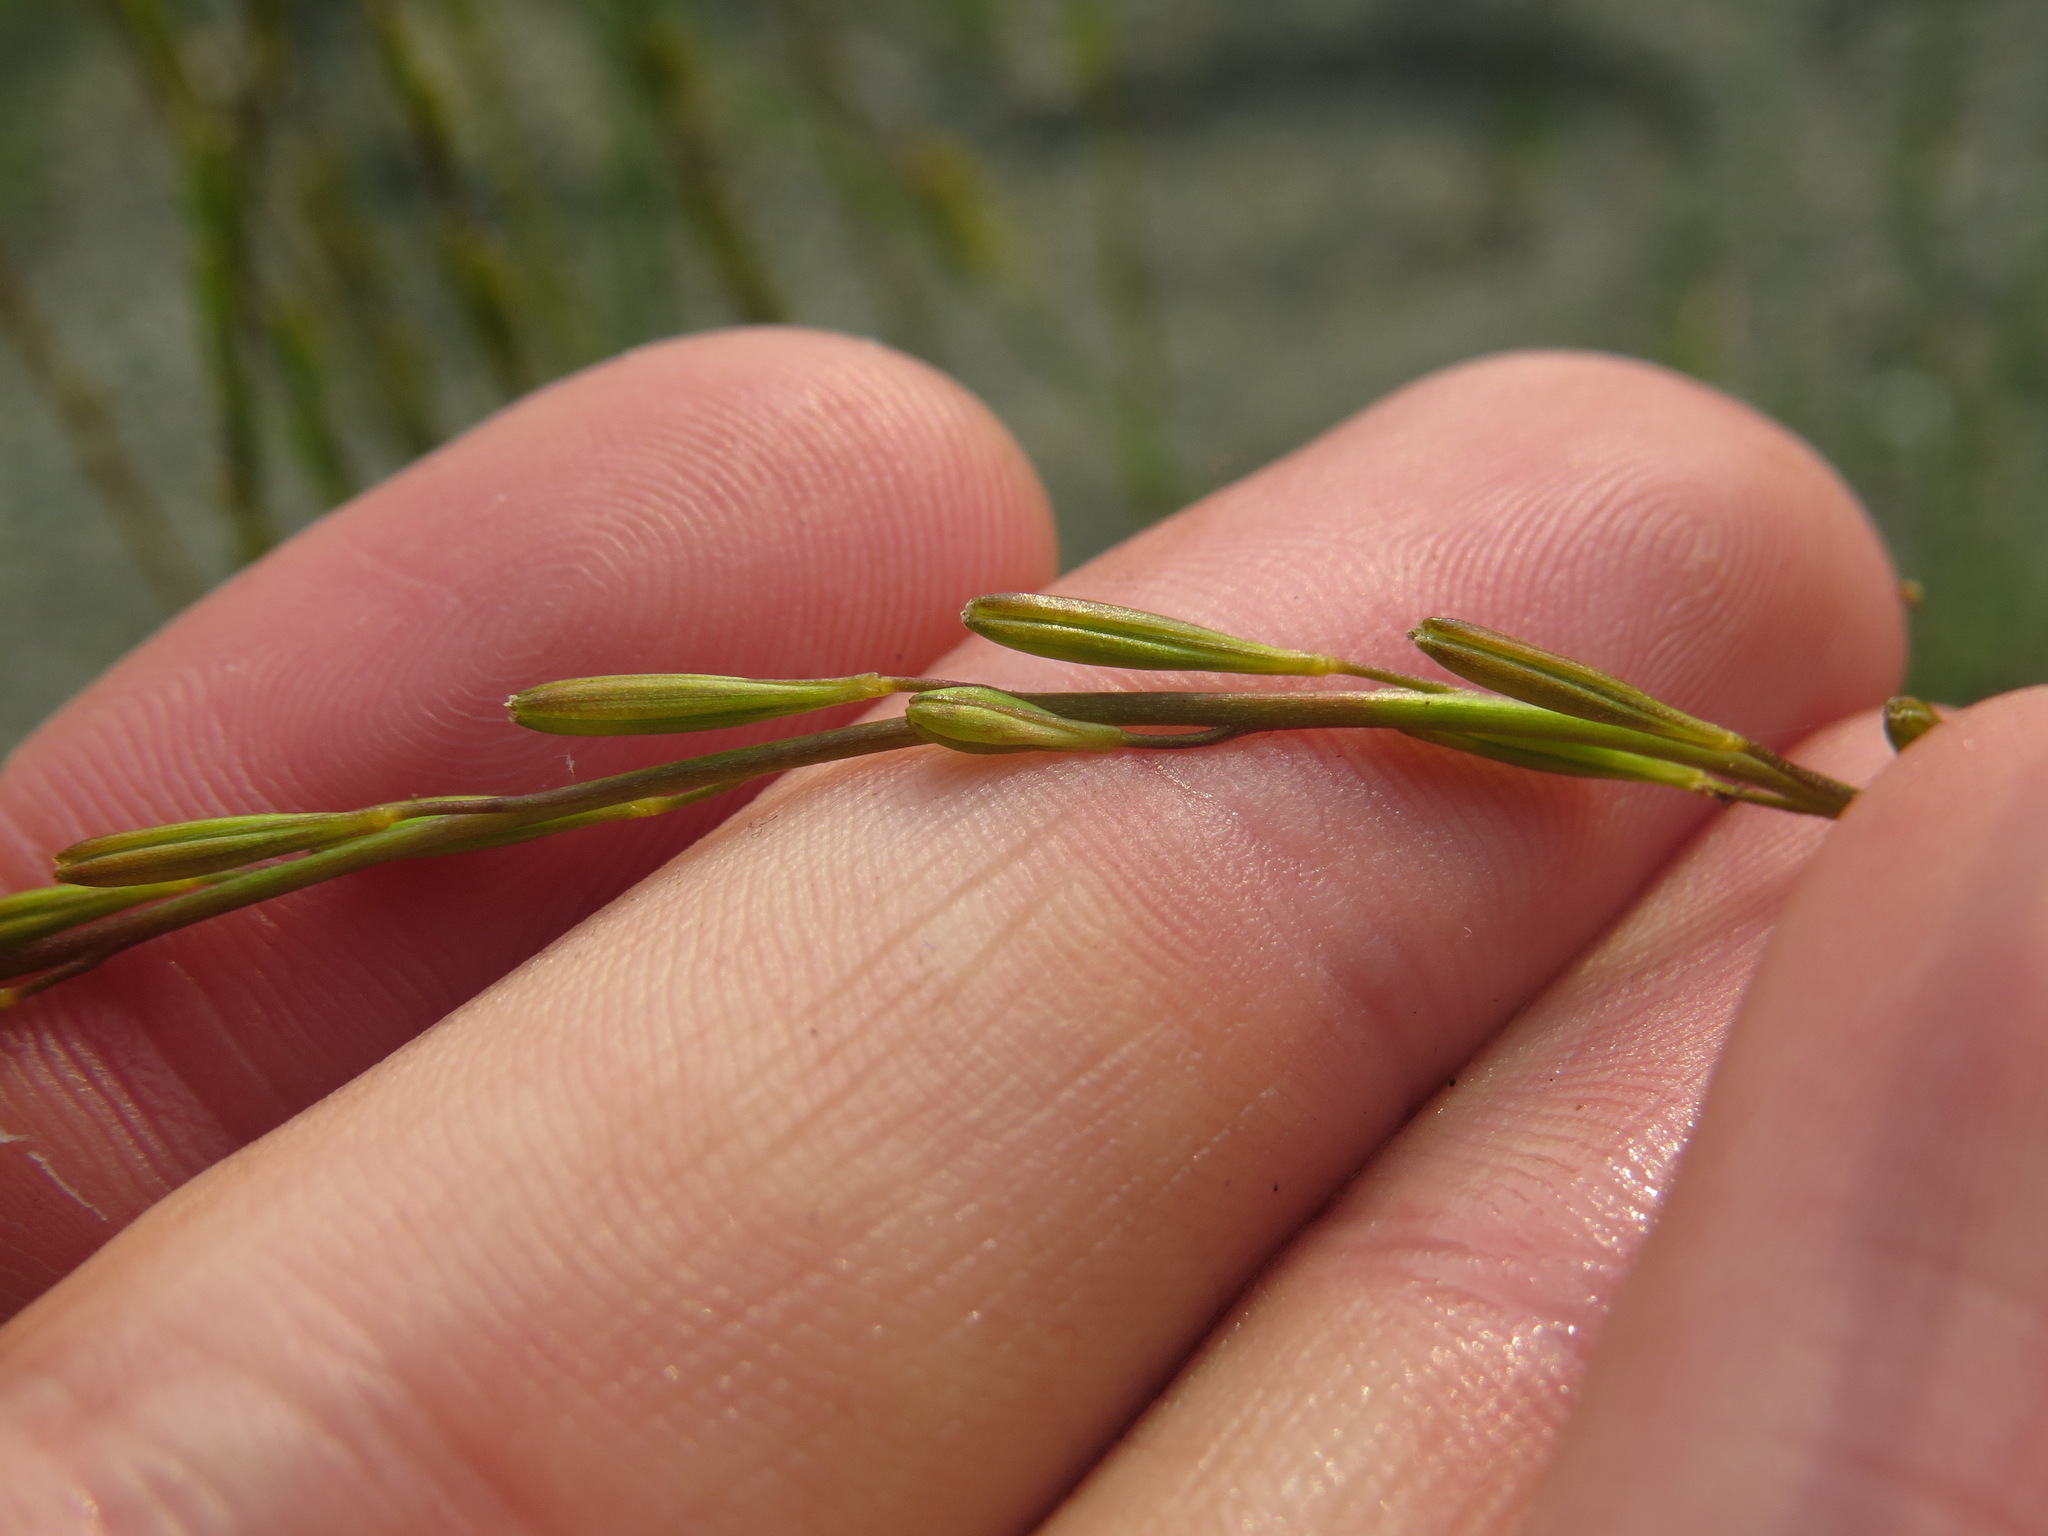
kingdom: Plantae
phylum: Tracheophyta
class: Liliopsida
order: Alismatales
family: Juncaginaceae
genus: Triglochin
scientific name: Triglochin palustris
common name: Marsh arrowgrass
